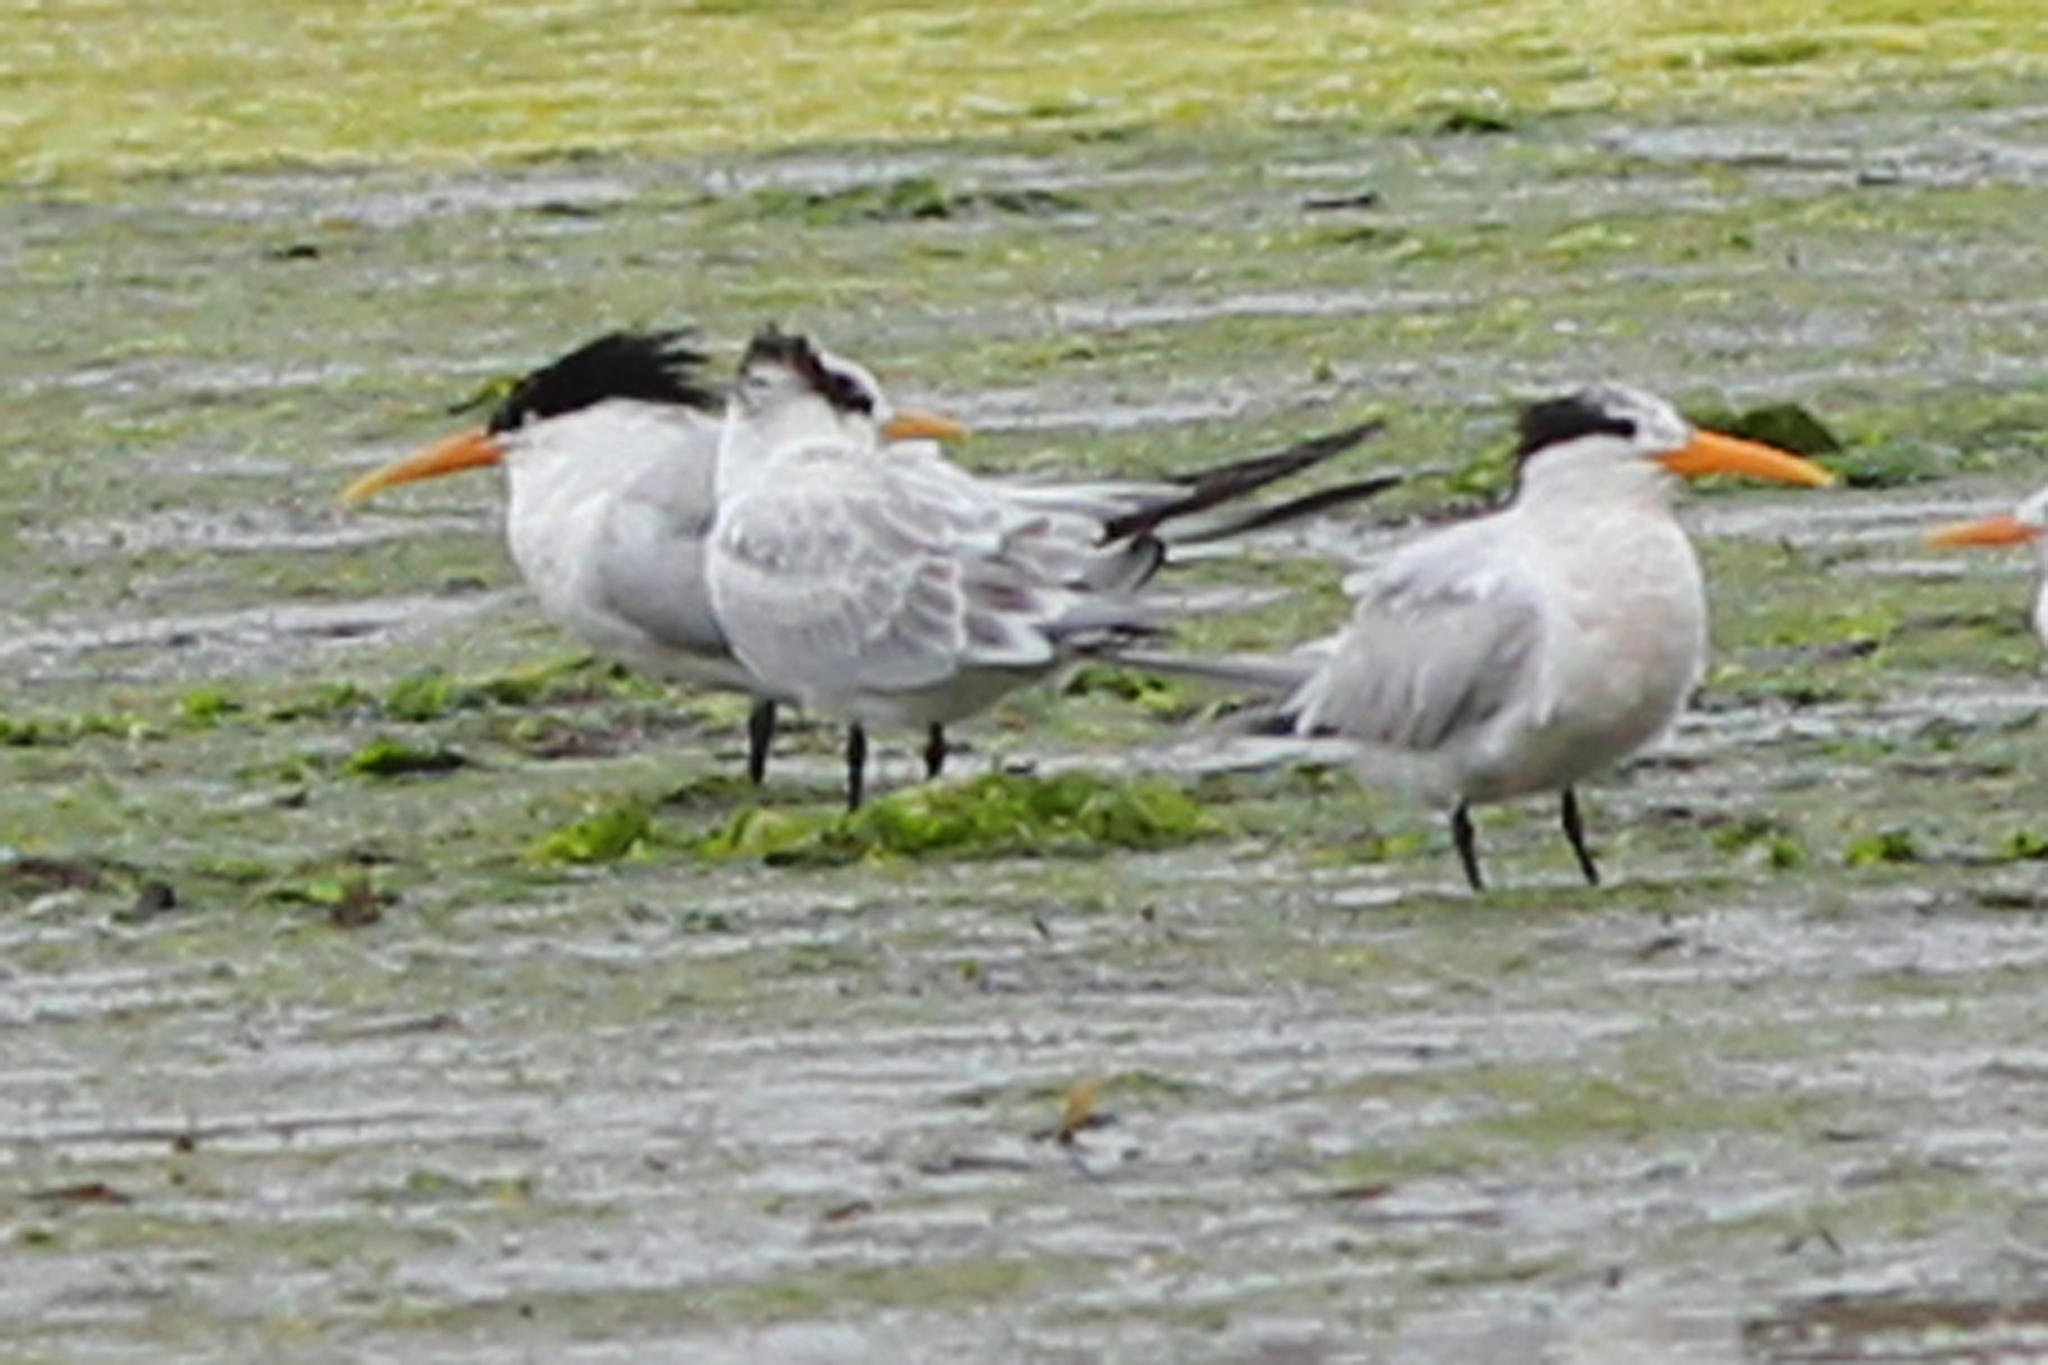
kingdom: Animalia
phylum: Chordata
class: Aves
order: Charadriiformes
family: Laridae
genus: Thalasseus
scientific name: Thalasseus elegans
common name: Elegant tern
